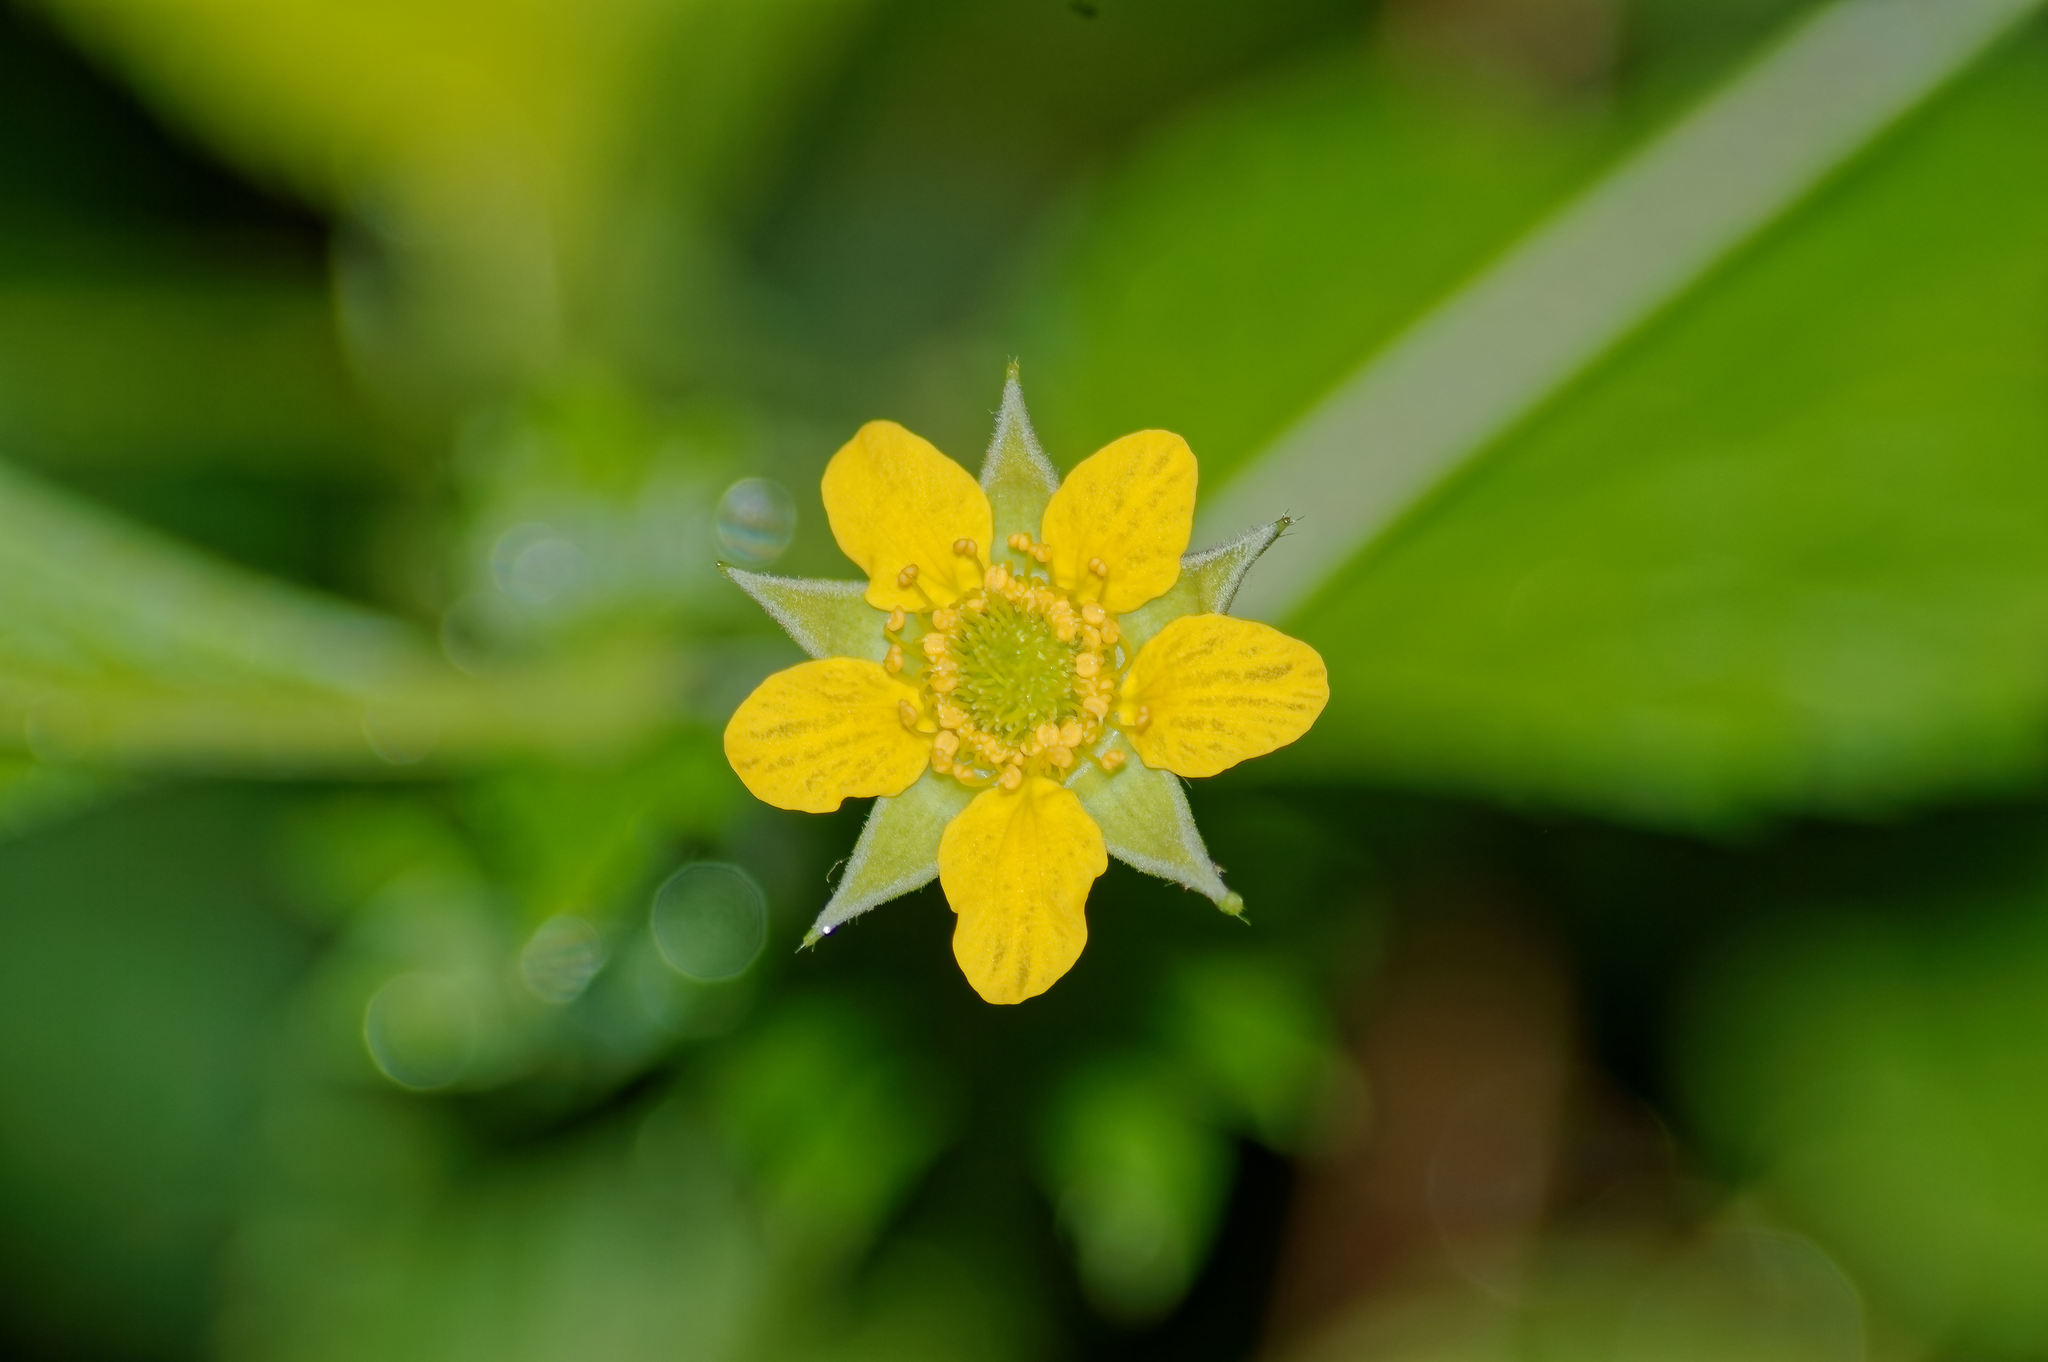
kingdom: Plantae
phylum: Tracheophyta
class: Magnoliopsida
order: Rosales
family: Rosaceae
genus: Geum
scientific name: Geum urbanum
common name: Wood avens
